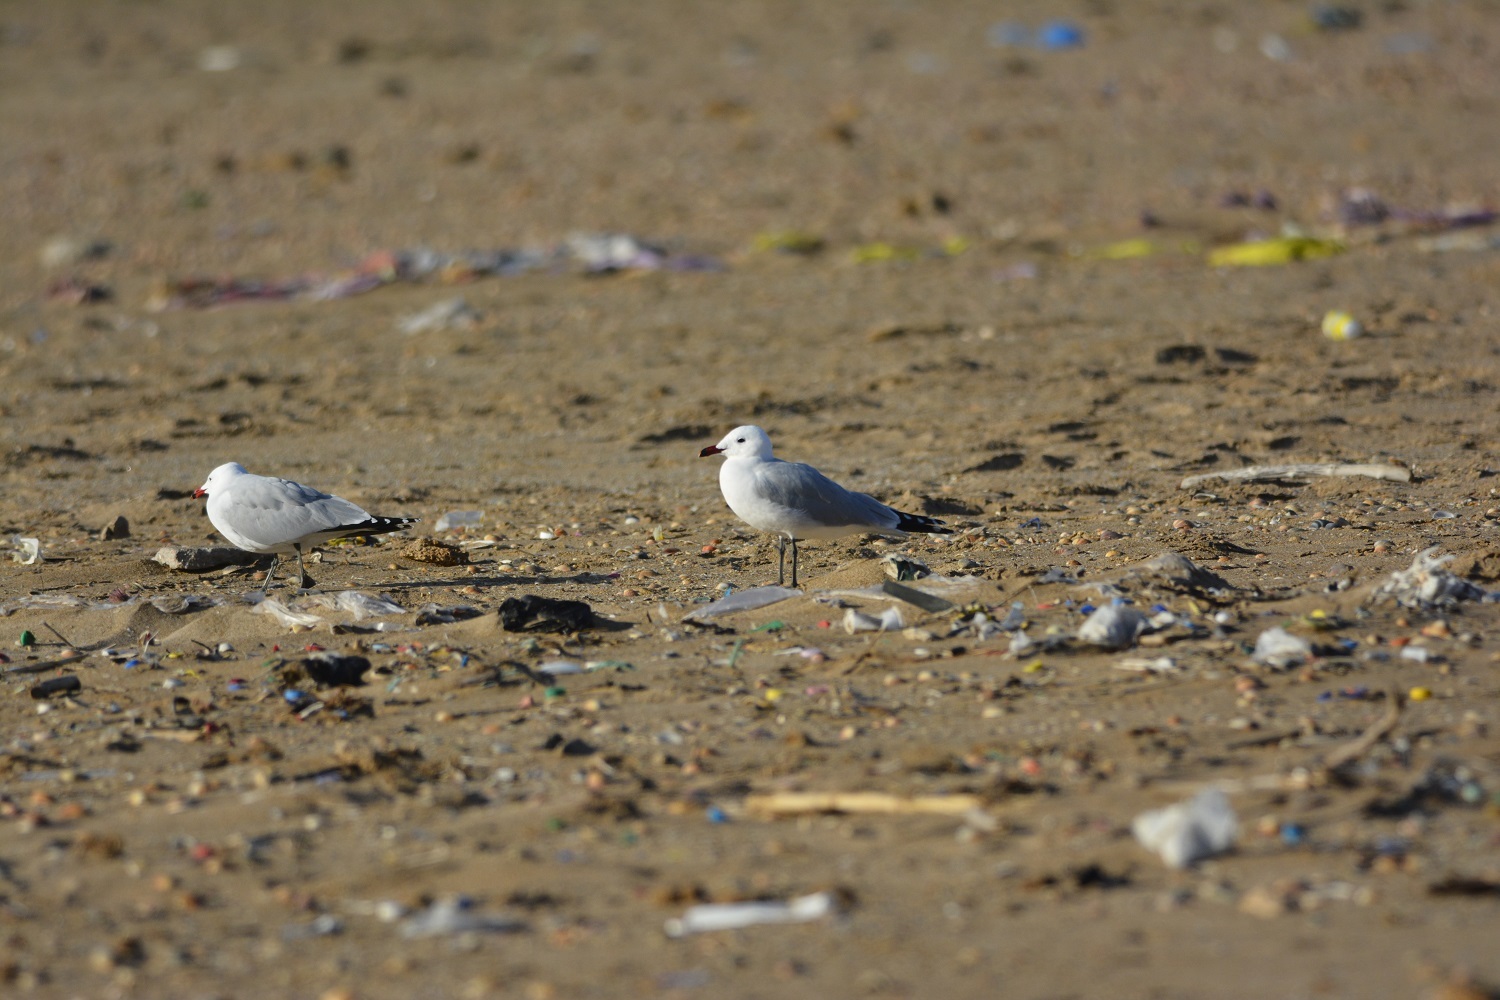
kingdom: Animalia
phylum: Chordata
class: Aves
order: Charadriiformes
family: Laridae
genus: Ichthyaetus
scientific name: Ichthyaetus audouinii
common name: Audouin's gull
